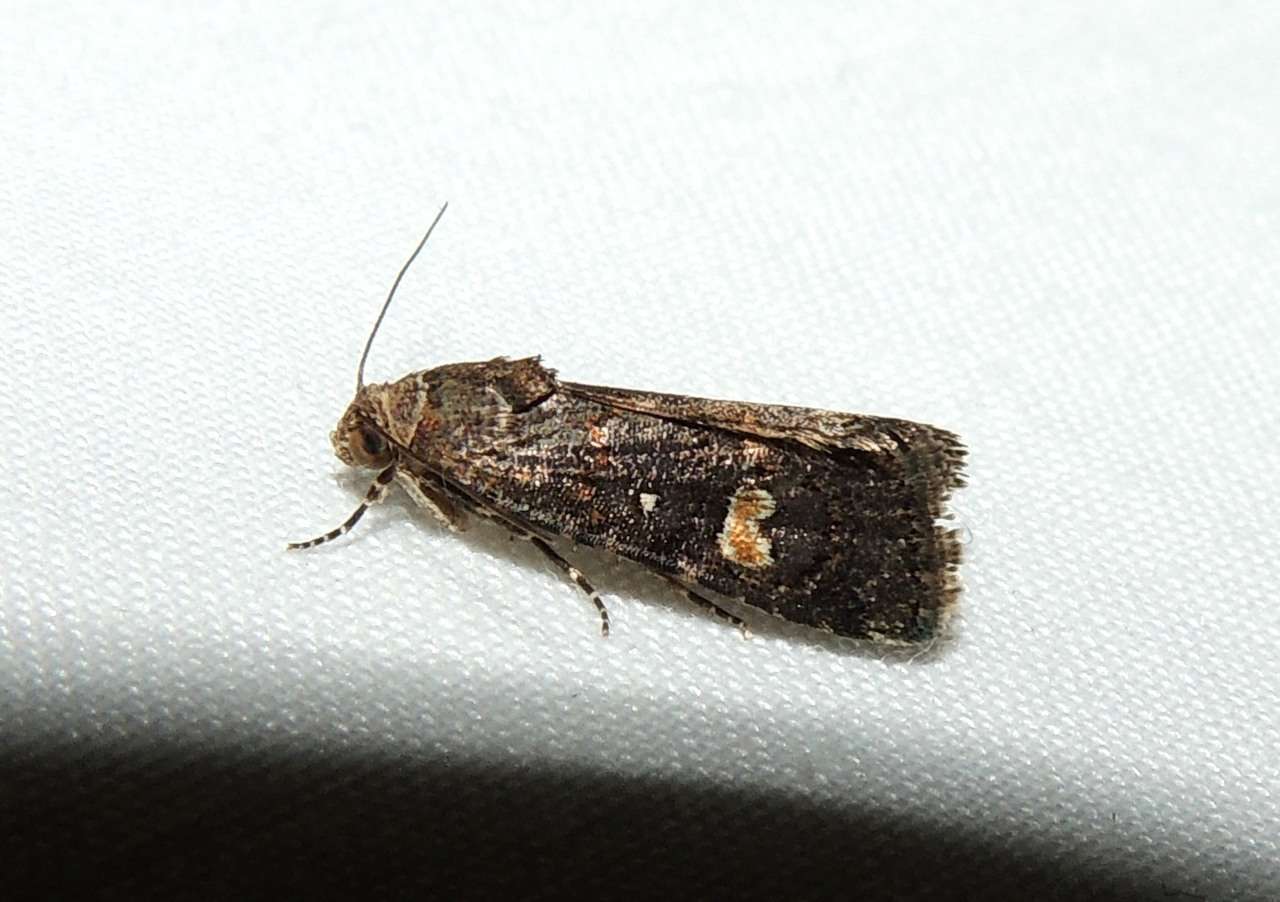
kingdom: Animalia
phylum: Arthropoda
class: Insecta
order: Lepidoptera
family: Noctuidae
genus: Paromphale
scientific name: Paromphale caeca
